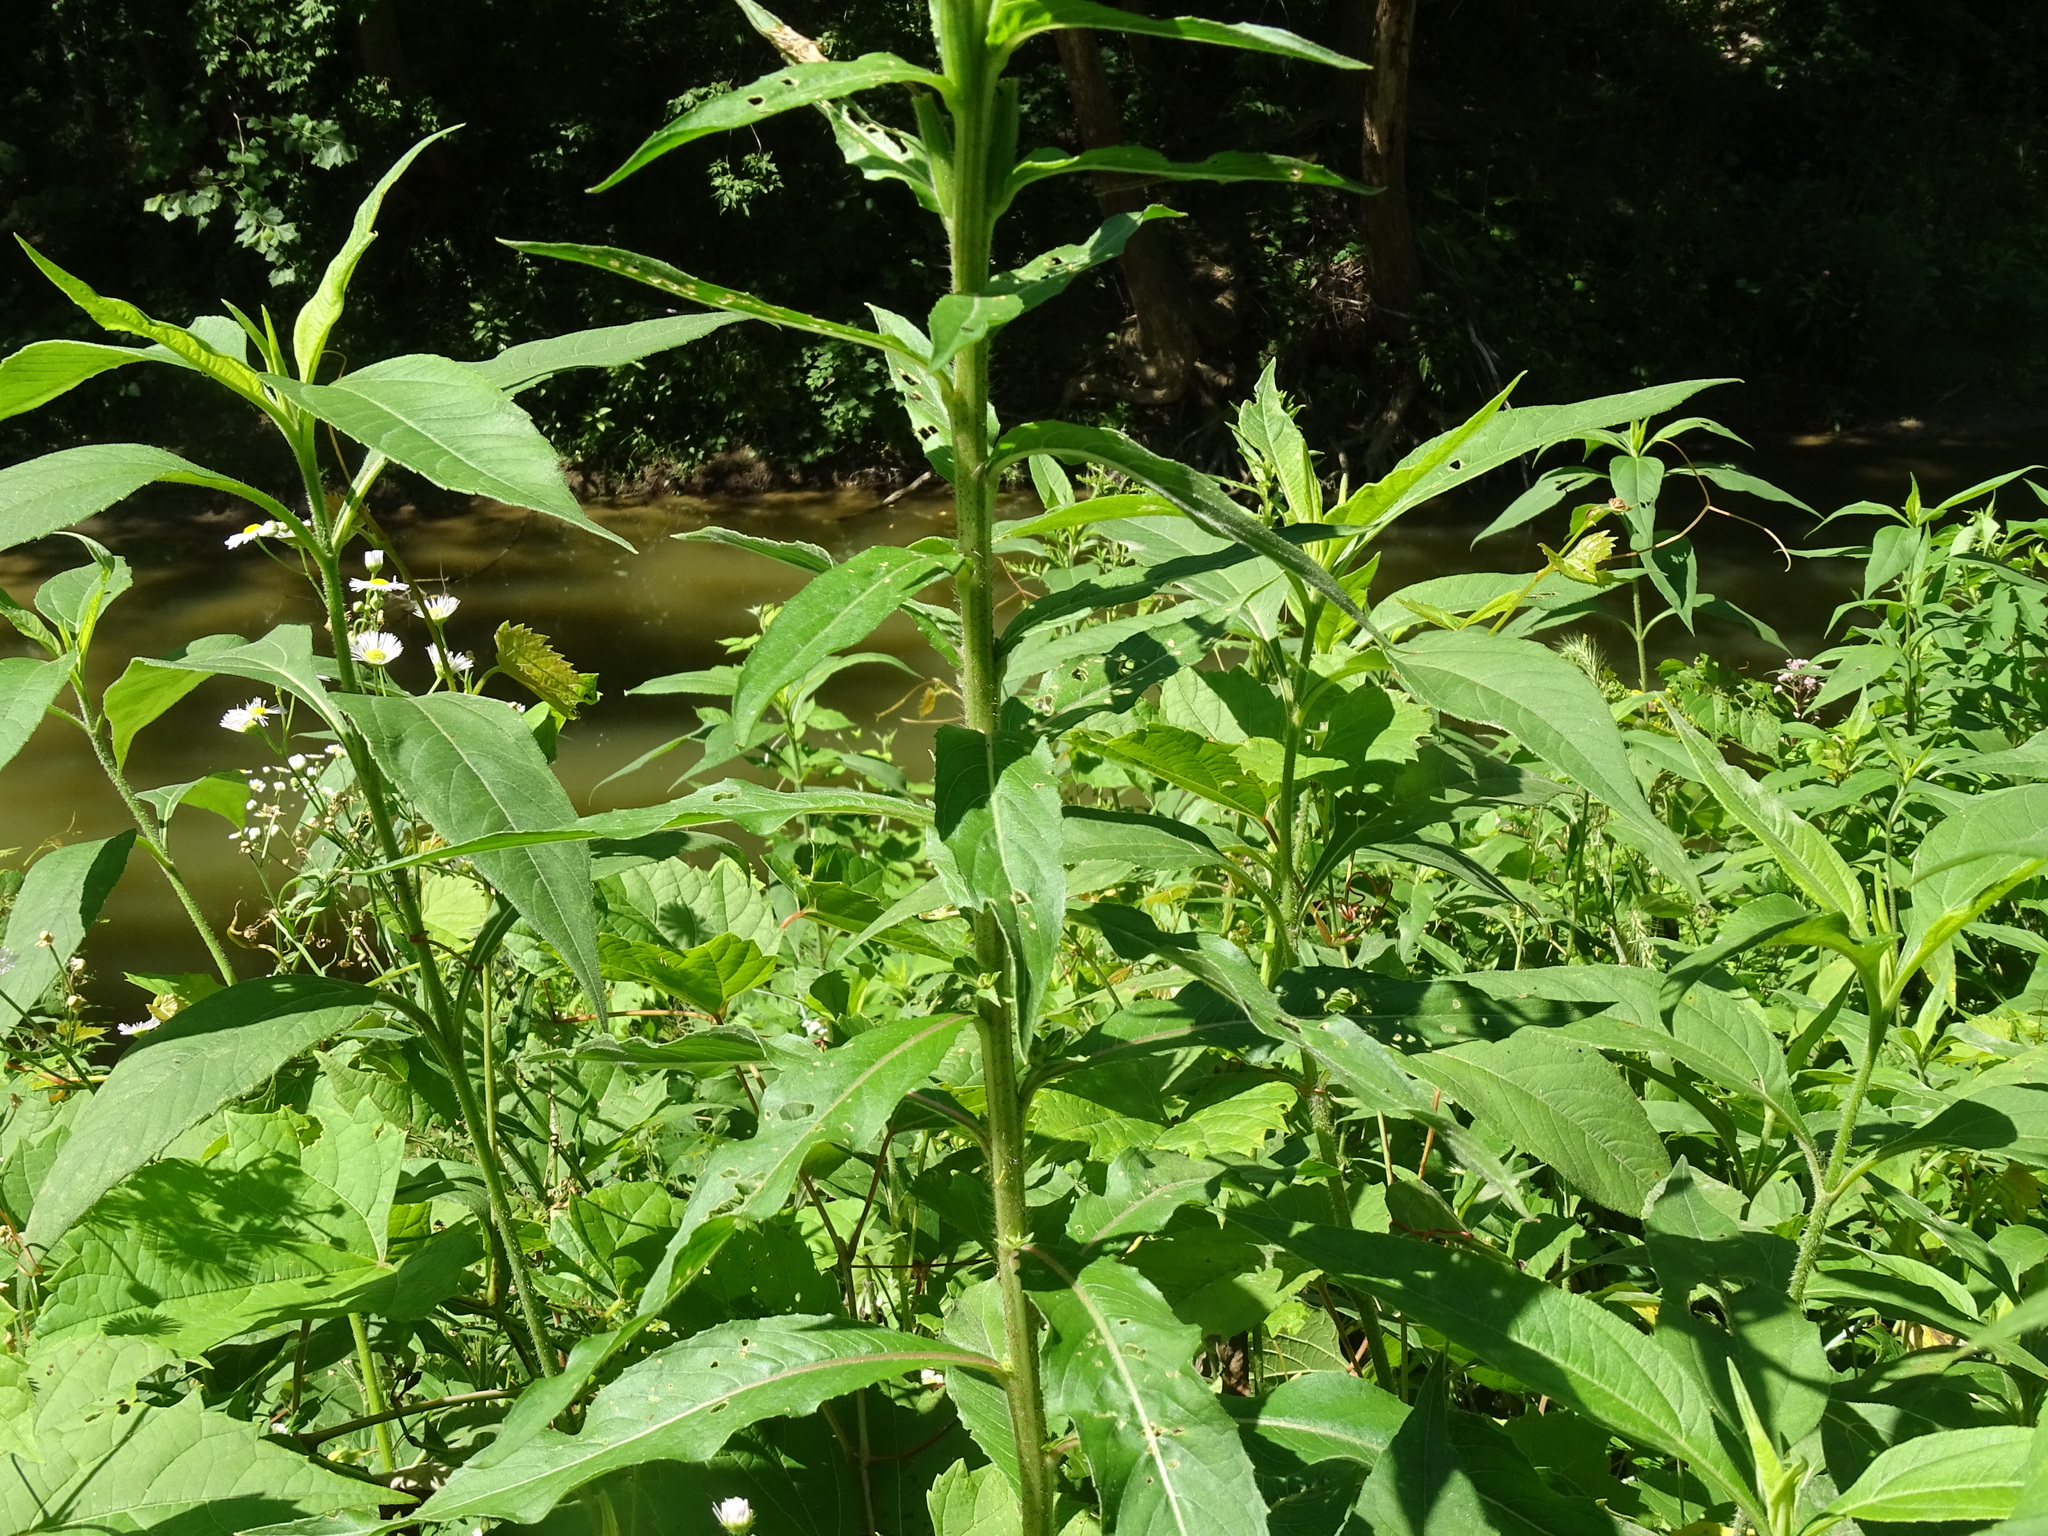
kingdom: Plantae
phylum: Tracheophyta
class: Magnoliopsida
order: Myrtales
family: Onagraceae
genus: Oenothera
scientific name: Oenothera biennis
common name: Common evening-primrose
